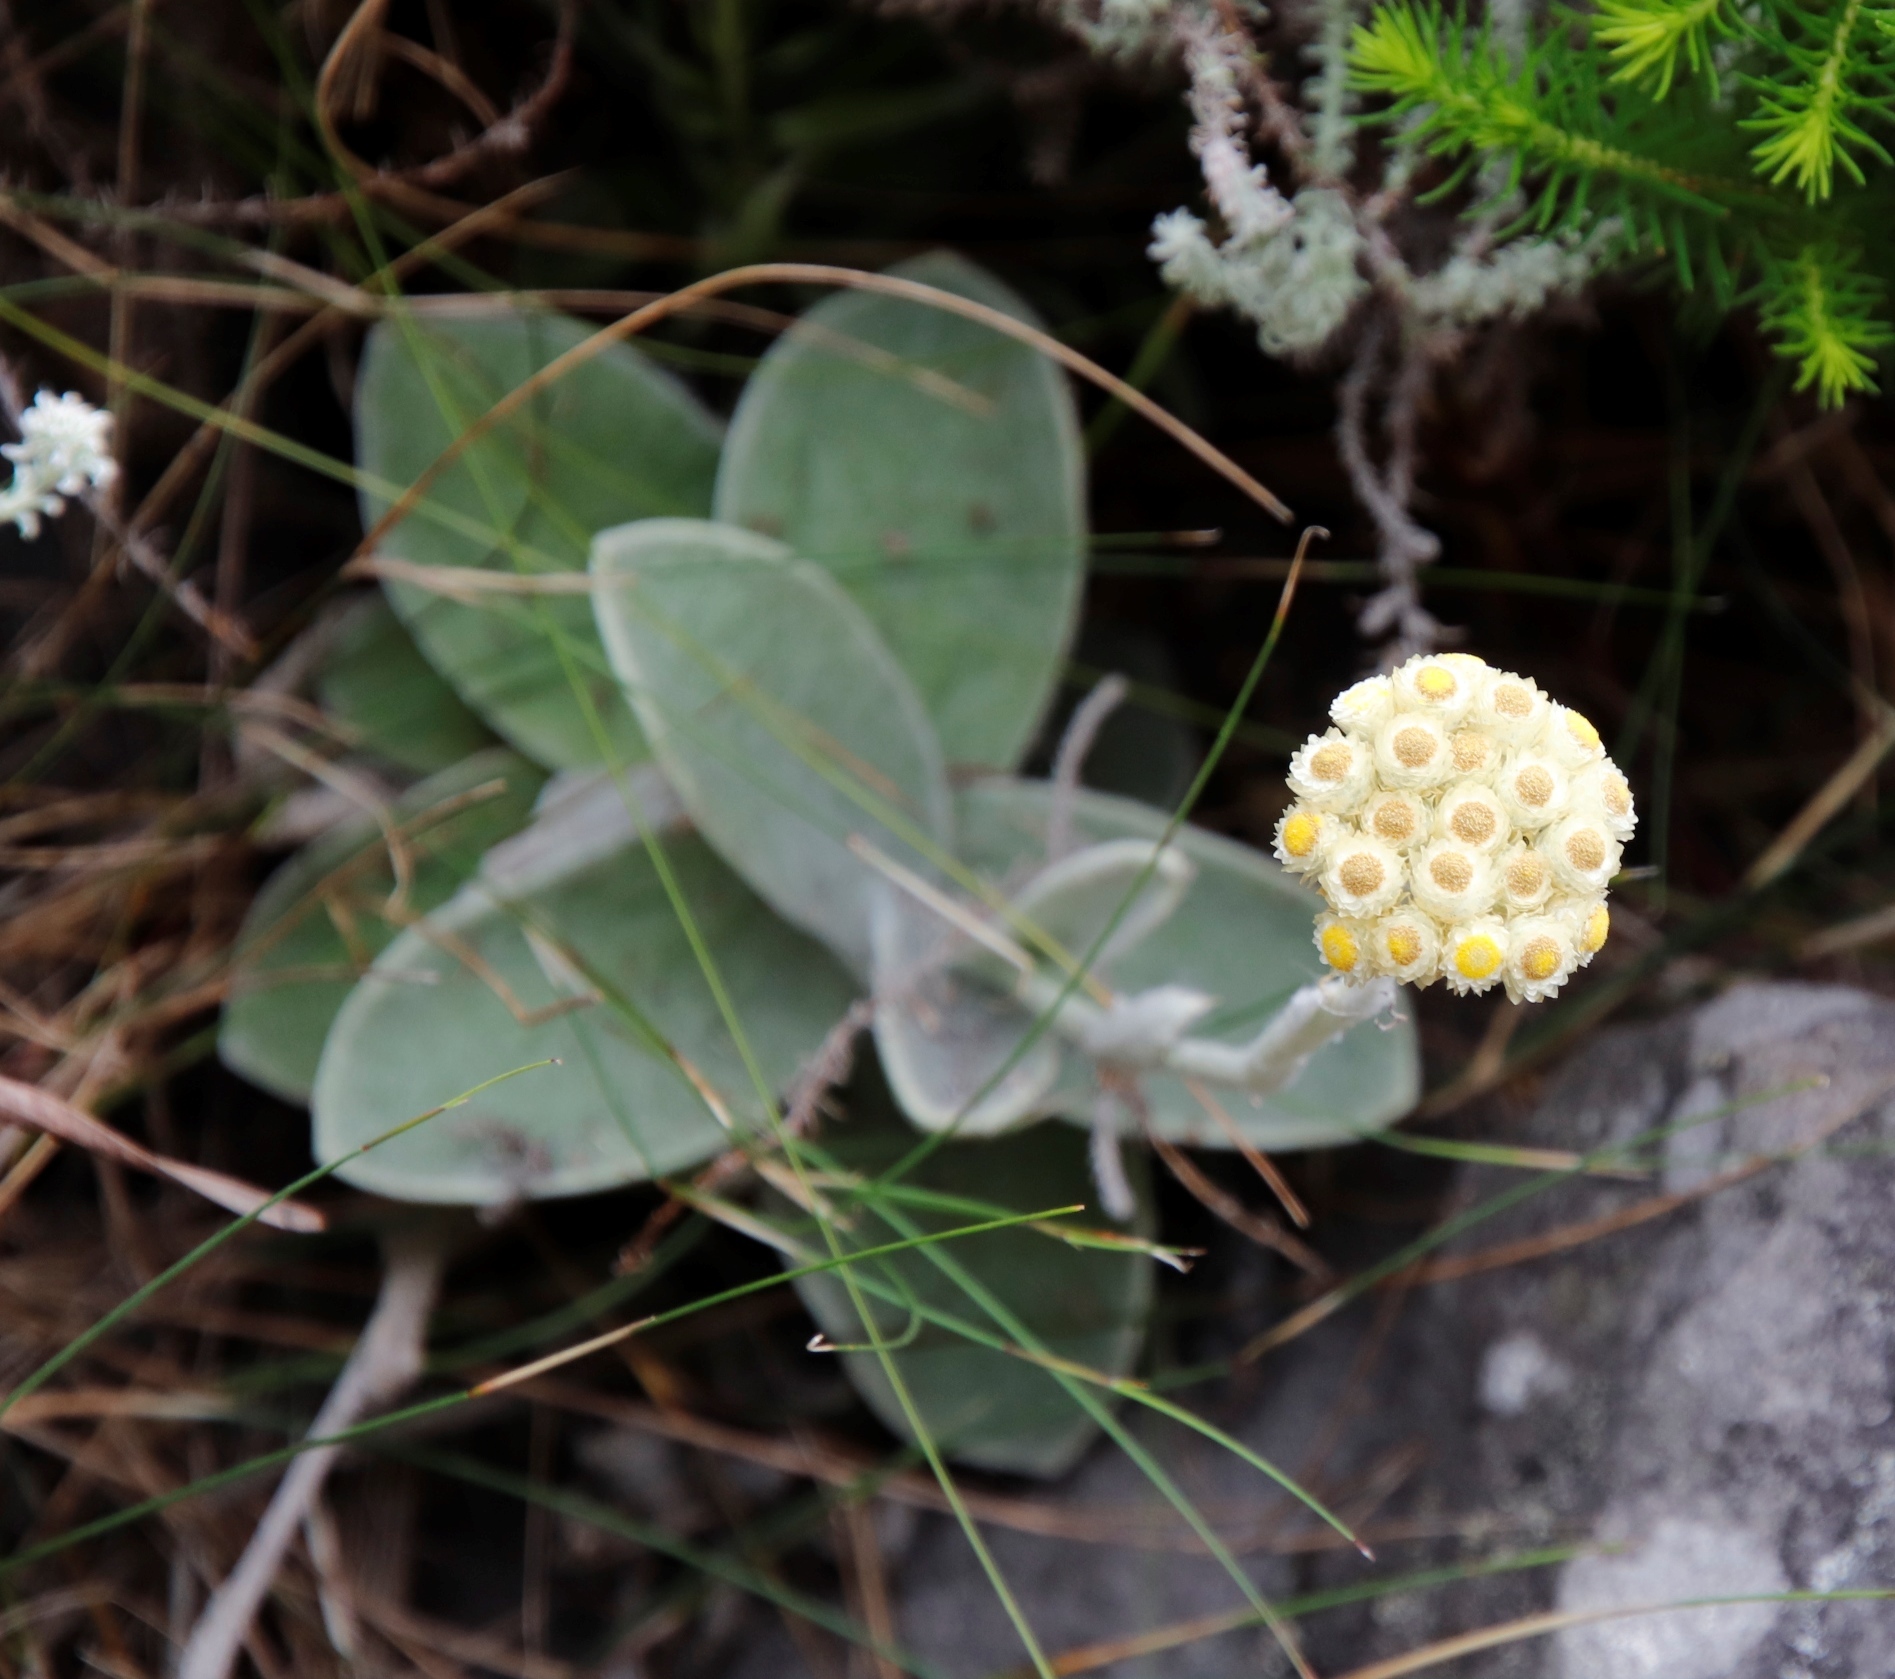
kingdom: Plantae
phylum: Tracheophyta
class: Magnoliopsida
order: Asterales
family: Asteraceae
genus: Helichrysum
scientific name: Helichrysum grandiflorum
